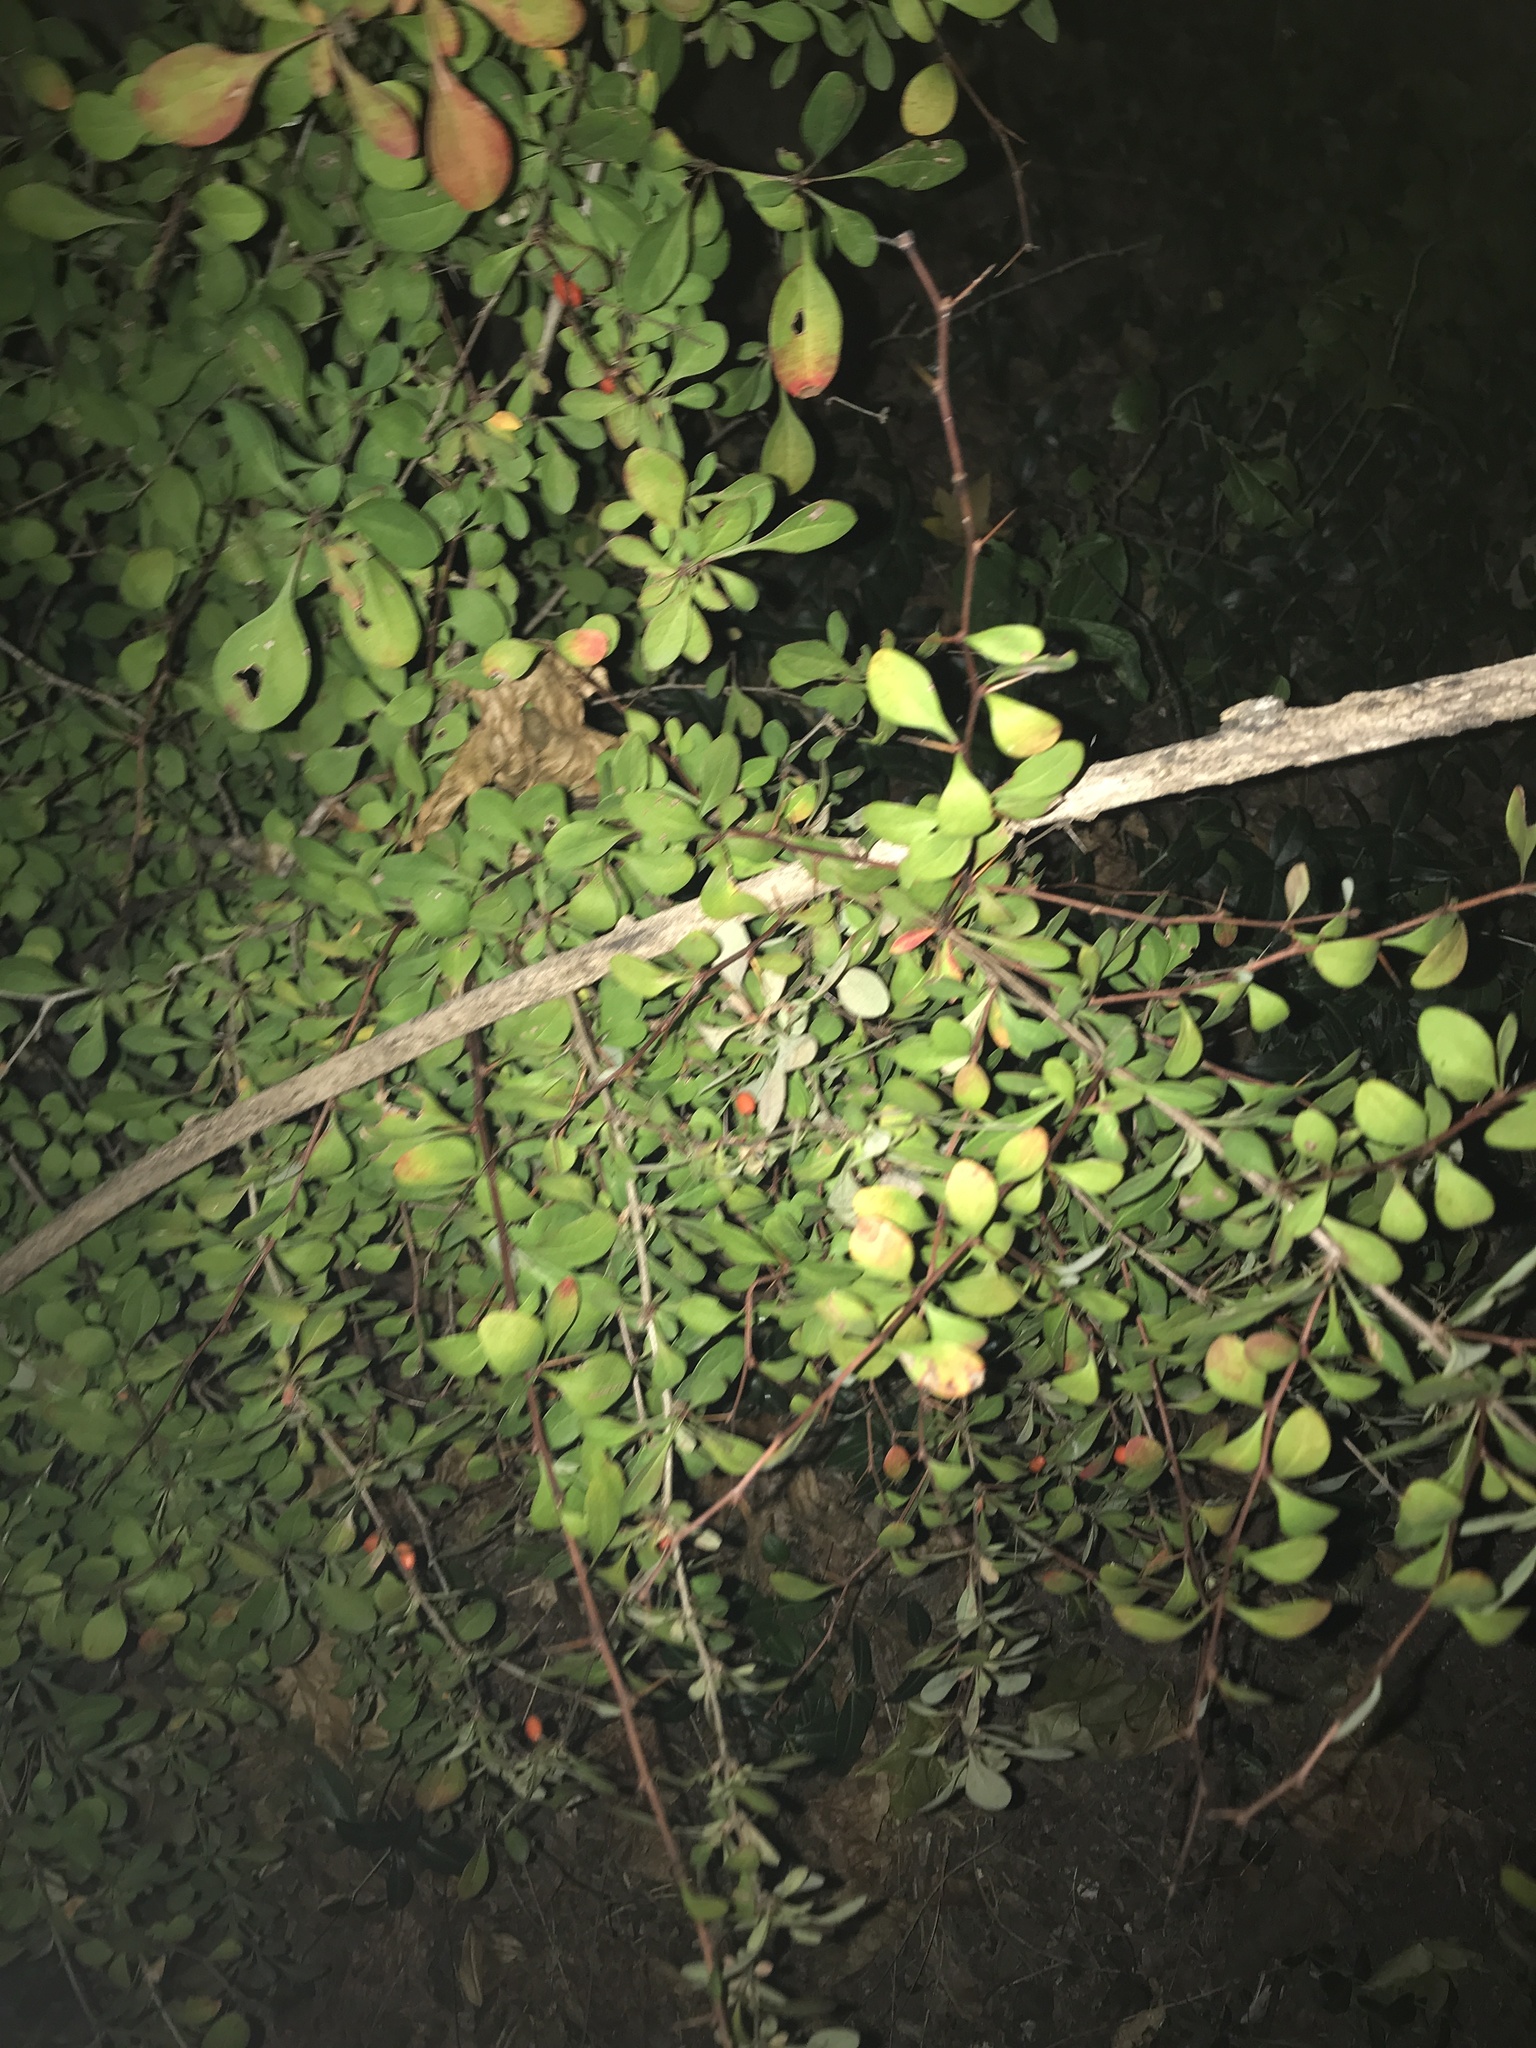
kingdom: Plantae
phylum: Tracheophyta
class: Magnoliopsida
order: Ranunculales
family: Berberidaceae
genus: Berberis
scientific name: Berberis thunbergii
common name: Japanese barberry
